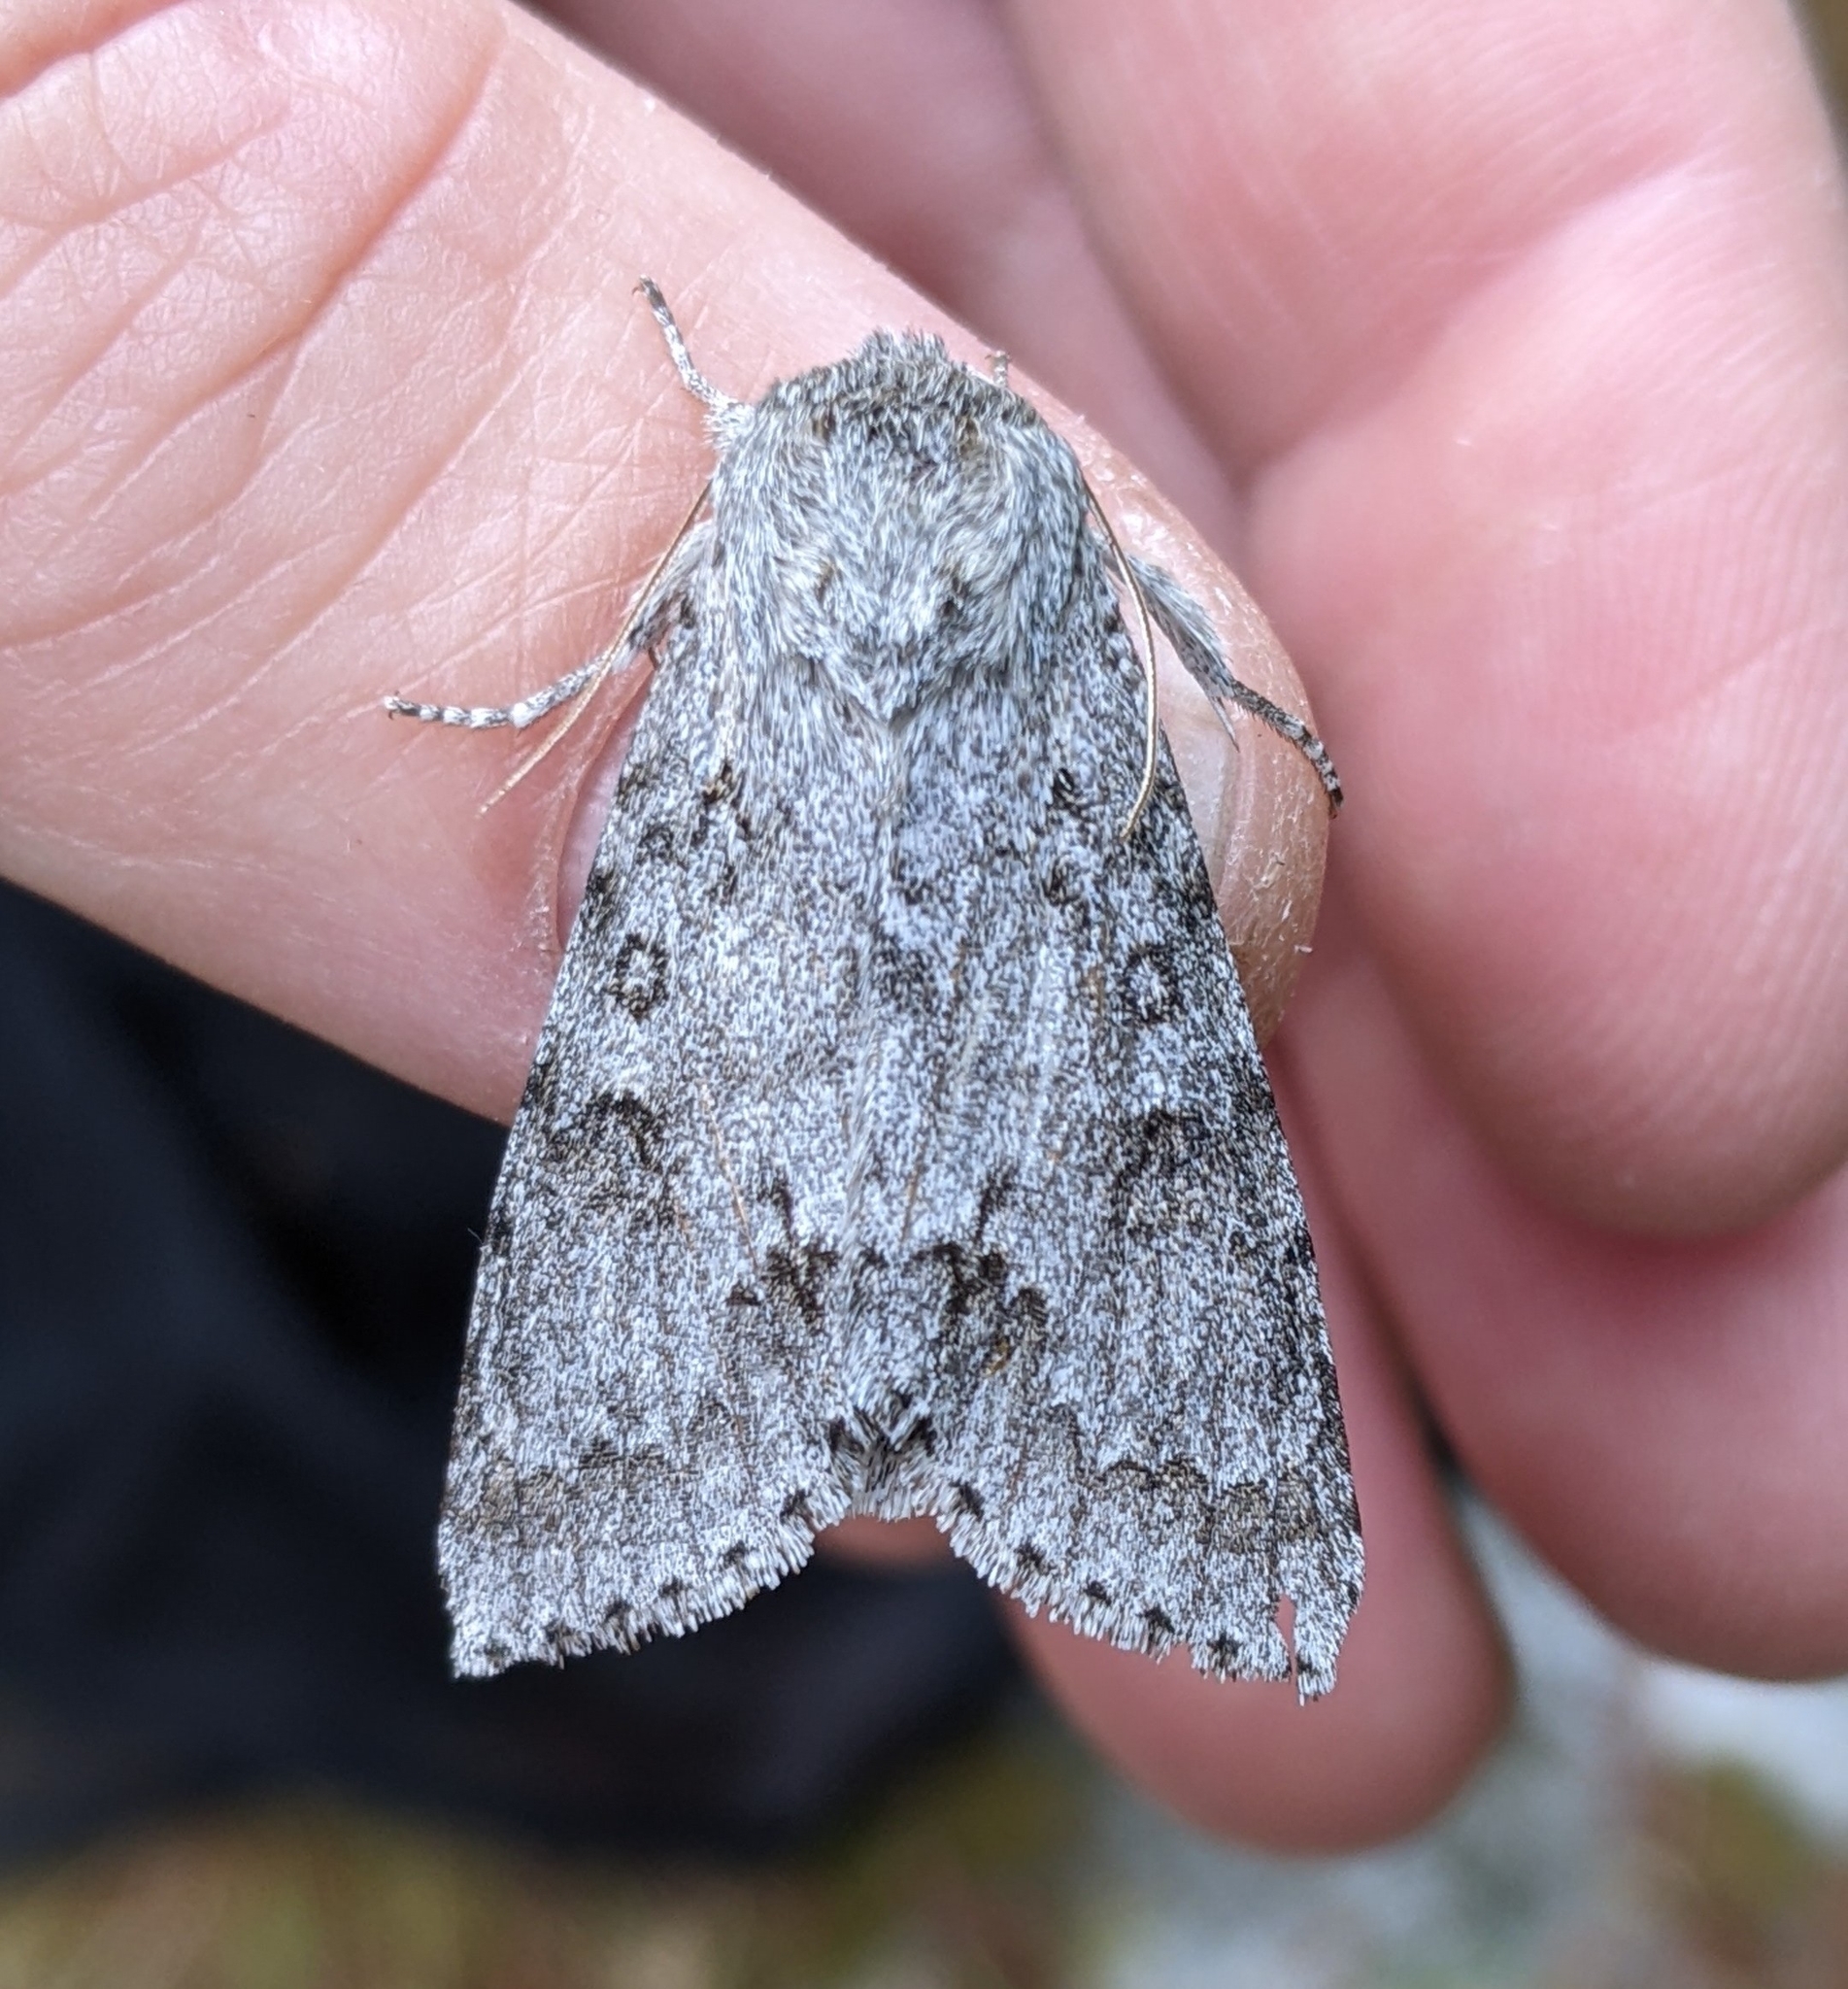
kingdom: Animalia
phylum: Arthropoda
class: Insecta
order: Lepidoptera
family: Noctuidae
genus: Acronicta
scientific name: Acronicta insita
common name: Large gray dagger
